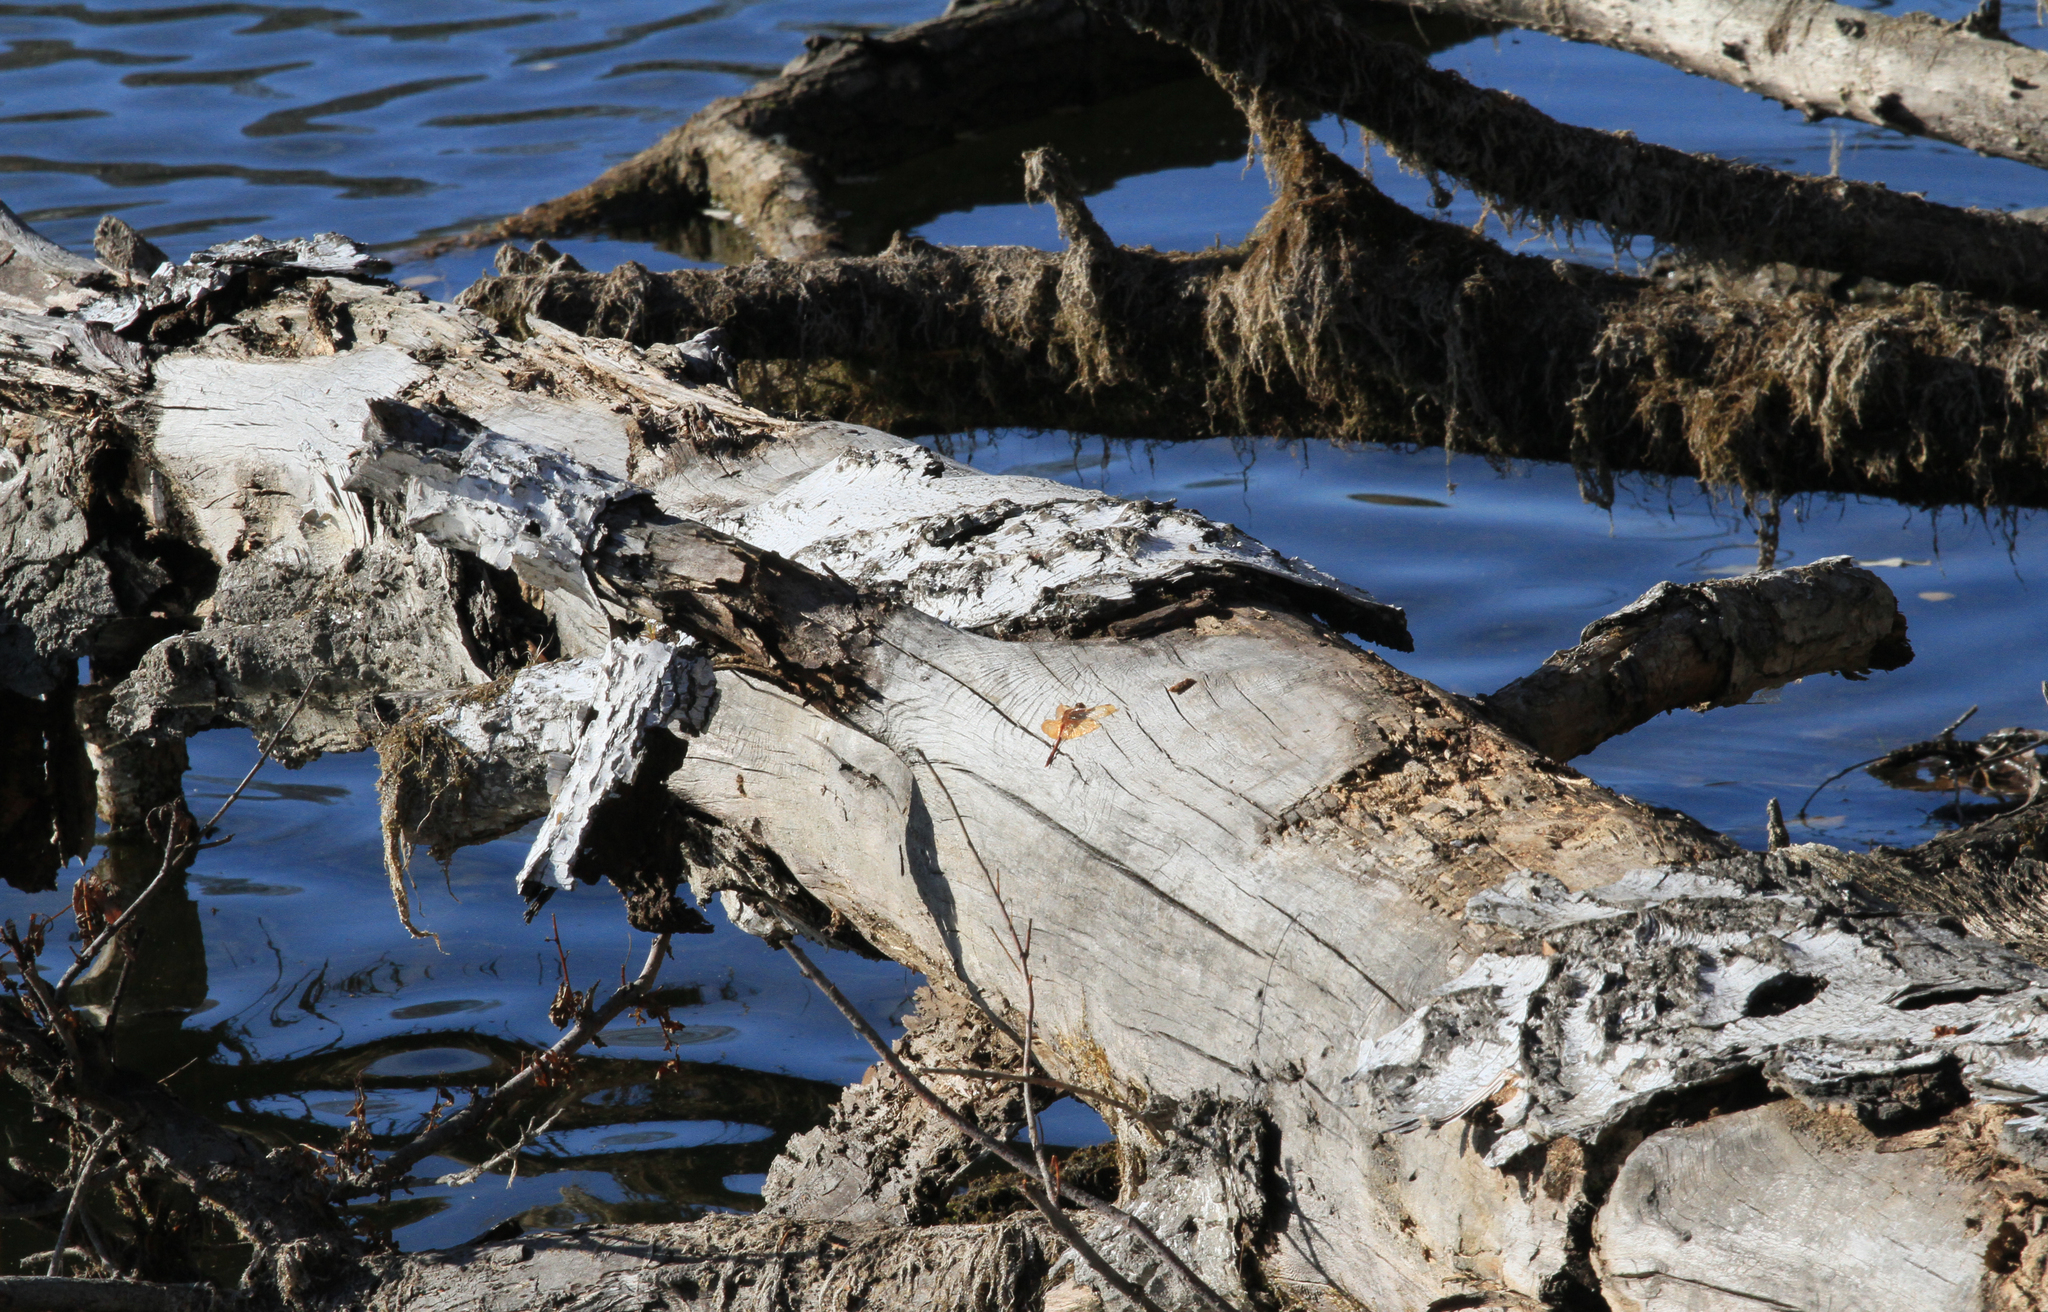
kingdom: Animalia
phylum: Arthropoda
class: Insecta
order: Odonata
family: Libellulidae
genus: Sympetrum
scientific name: Sympetrum croceolum
